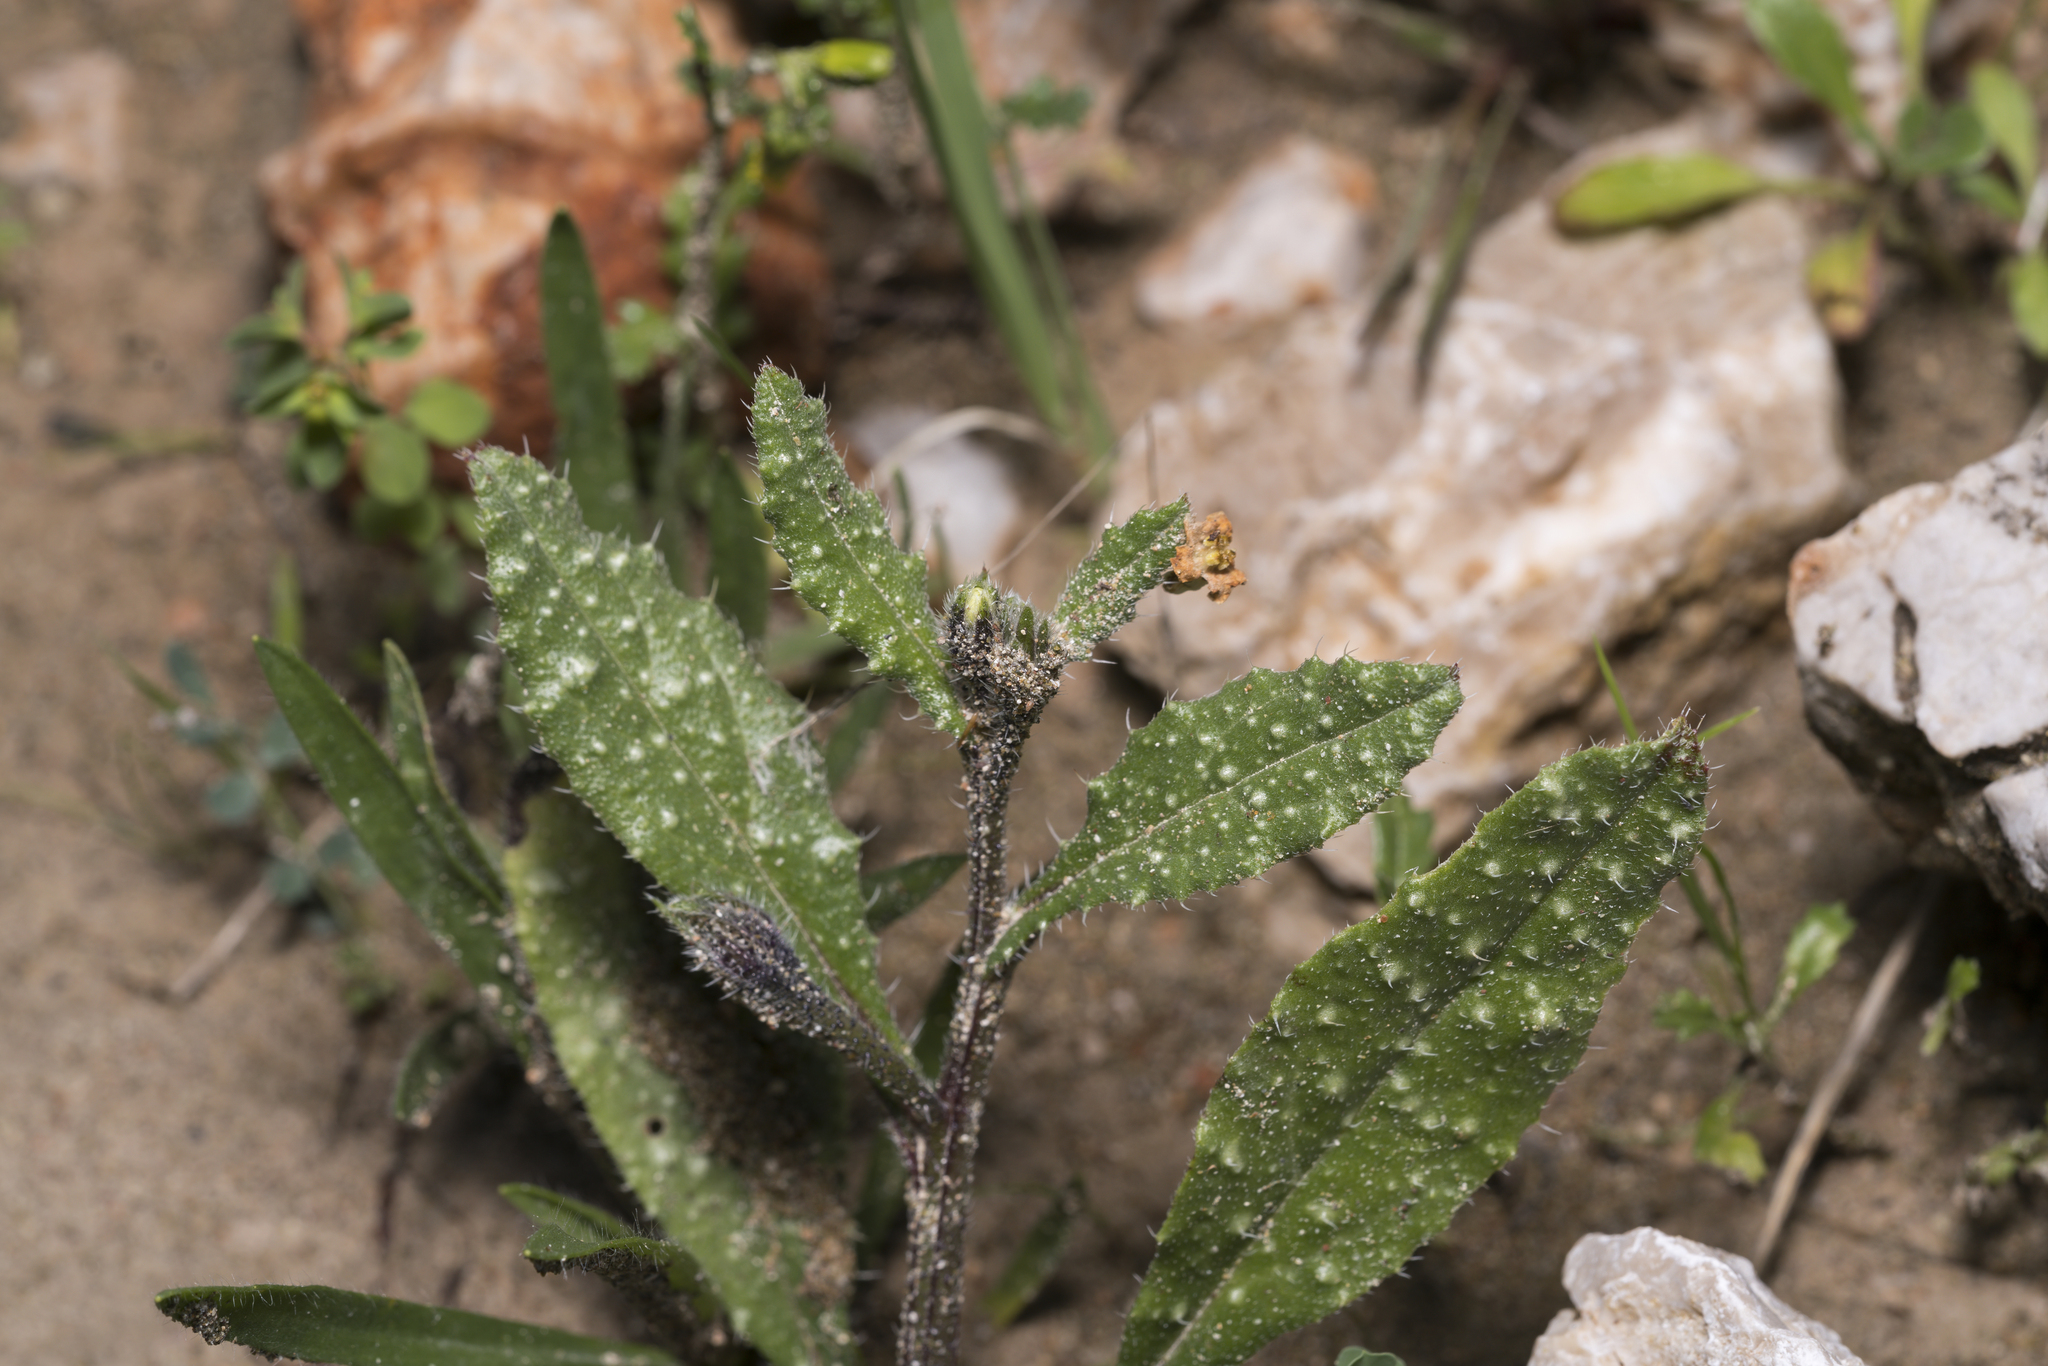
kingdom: Plantae
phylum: Tracheophyta
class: Magnoliopsida
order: Boraginales
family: Boraginaceae
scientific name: Boraginaceae
